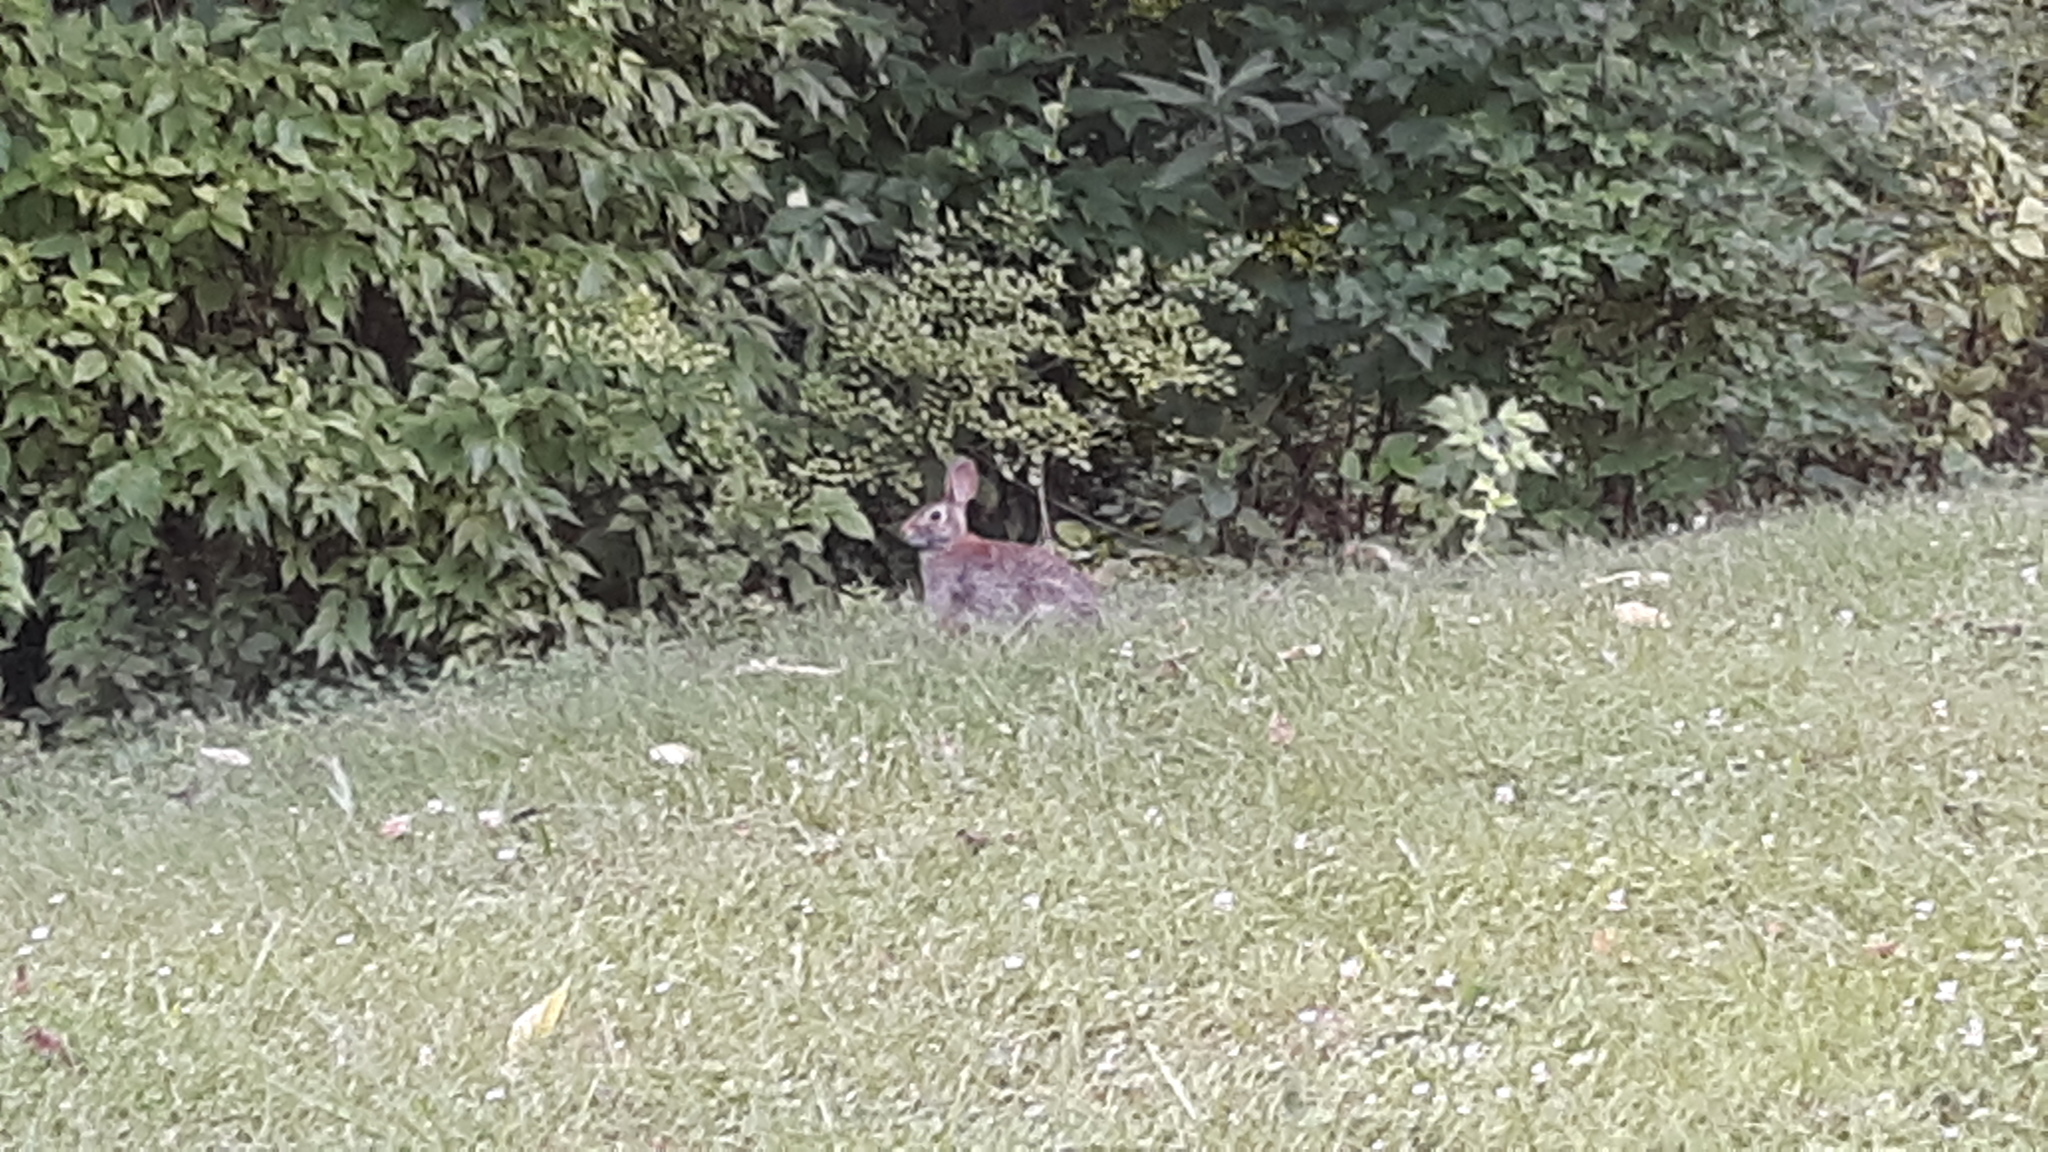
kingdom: Animalia
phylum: Chordata
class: Mammalia
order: Lagomorpha
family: Leporidae
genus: Sylvilagus
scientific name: Sylvilagus floridanus
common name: Eastern cottontail
